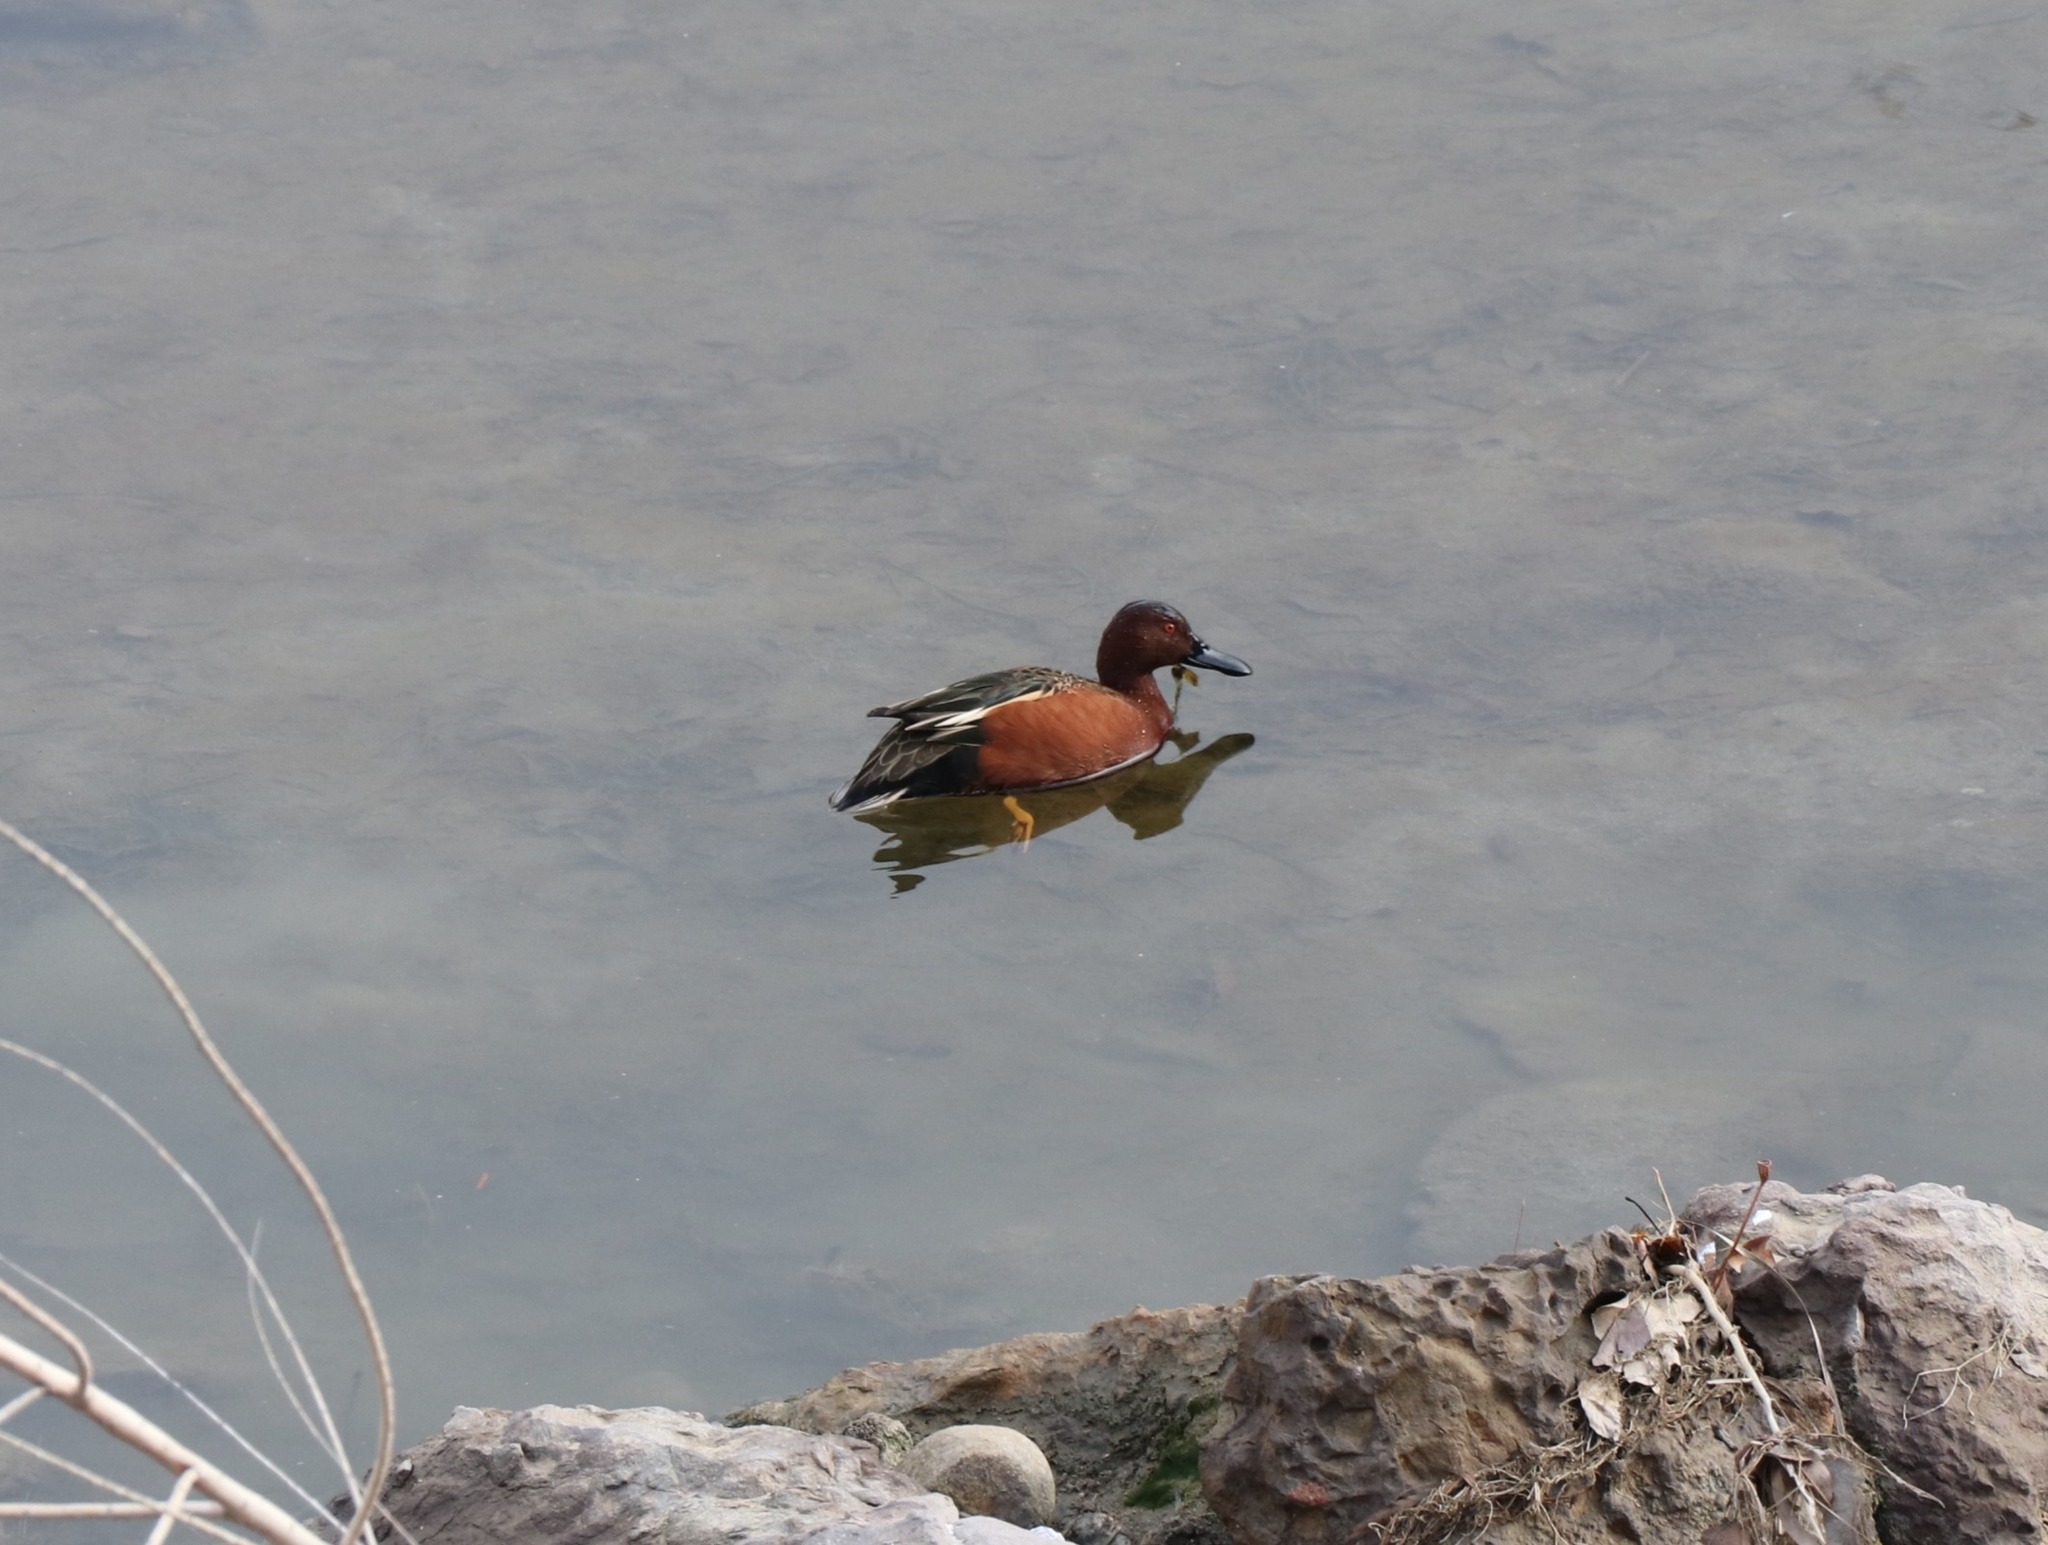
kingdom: Animalia
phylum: Chordata
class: Aves
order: Anseriformes
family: Anatidae
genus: Spatula
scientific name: Spatula cyanoptera
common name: Cinnamon teal
